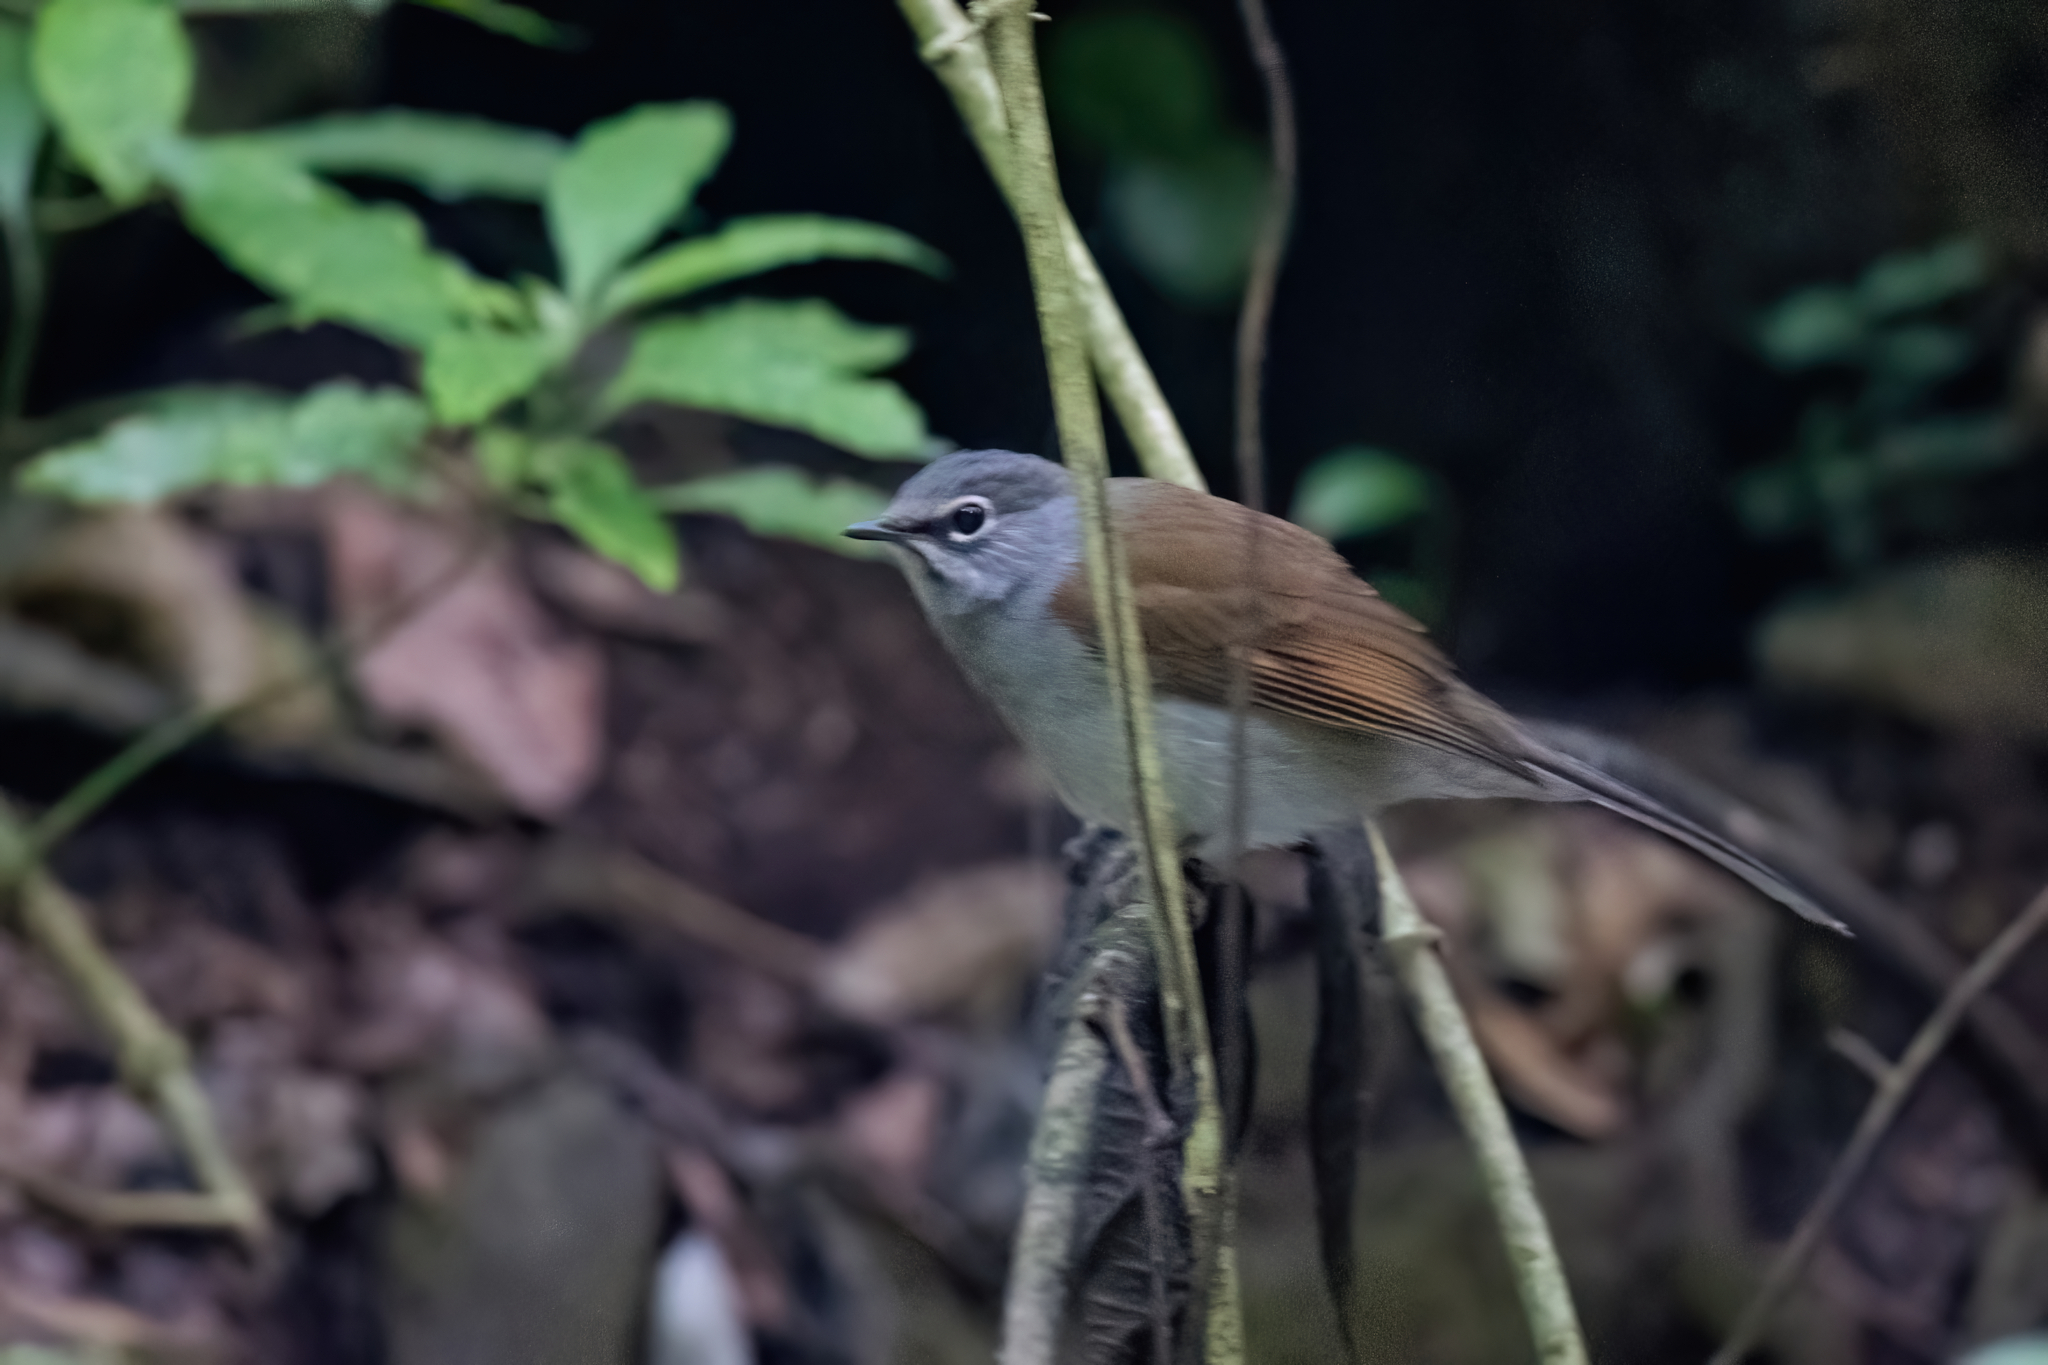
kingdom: Animalia
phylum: Chordata
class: Aves
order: Passeriformes
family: Turdidae
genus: Myadestes
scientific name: Myadestes occidentalis
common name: Brown-backed solitaire
